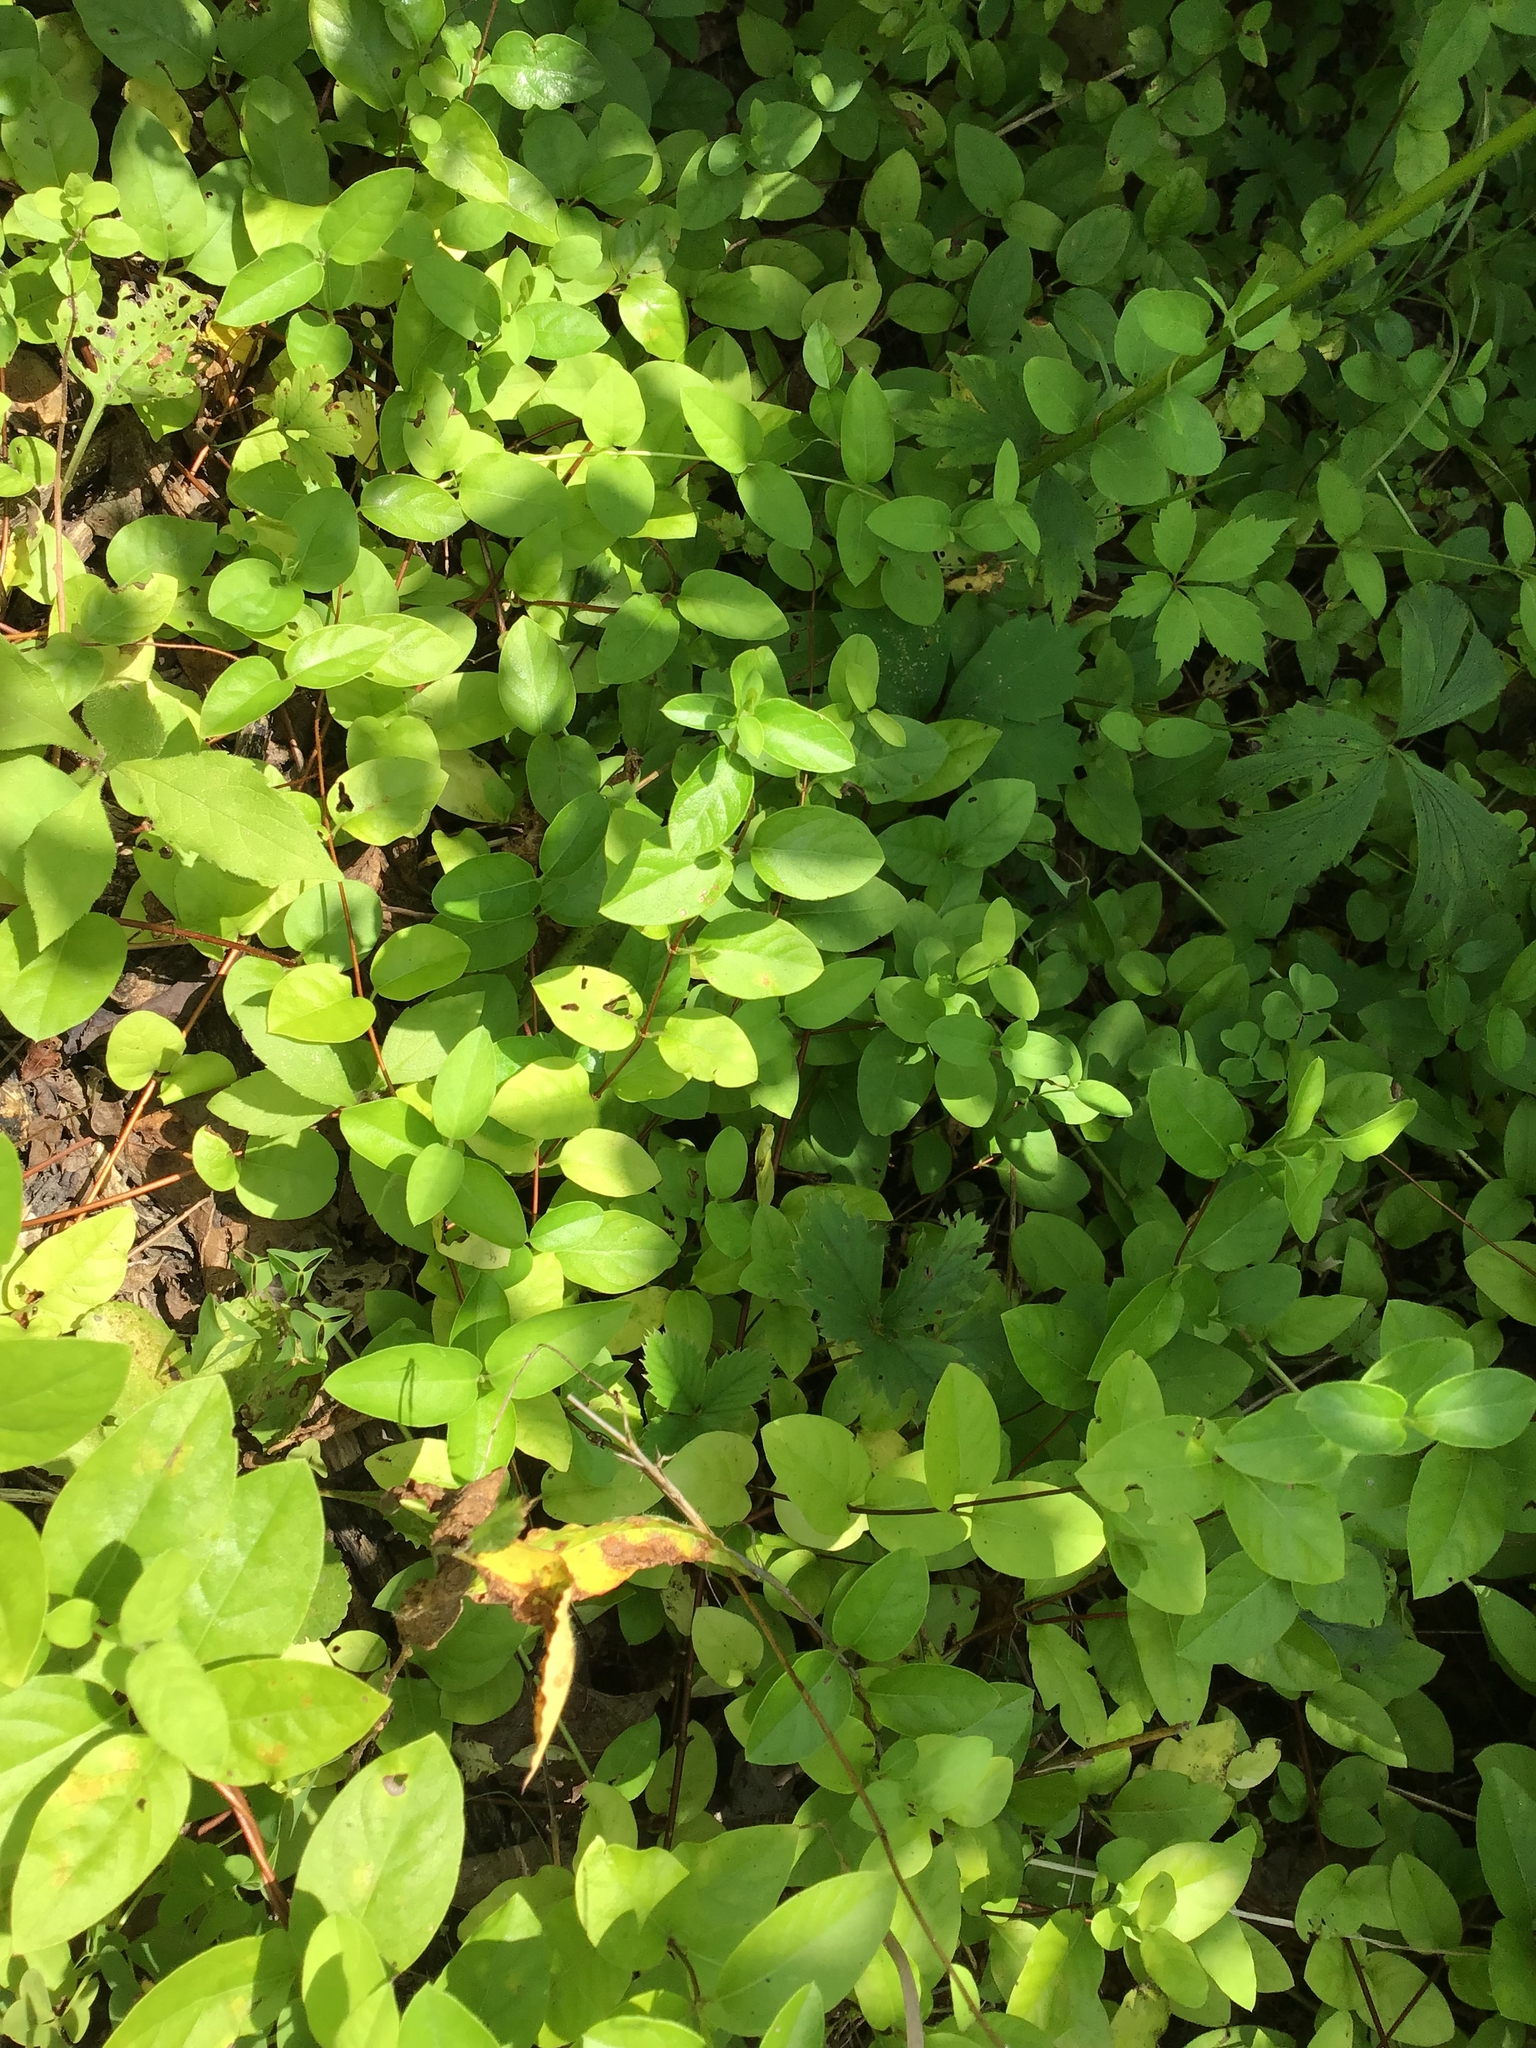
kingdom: Plantae
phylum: Tracheophyta
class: Magnoliopsida
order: Dipsacales
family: Caprifoliaceae
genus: Lonicera
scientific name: Lonicera japonica
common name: Japanese honeysuckle
